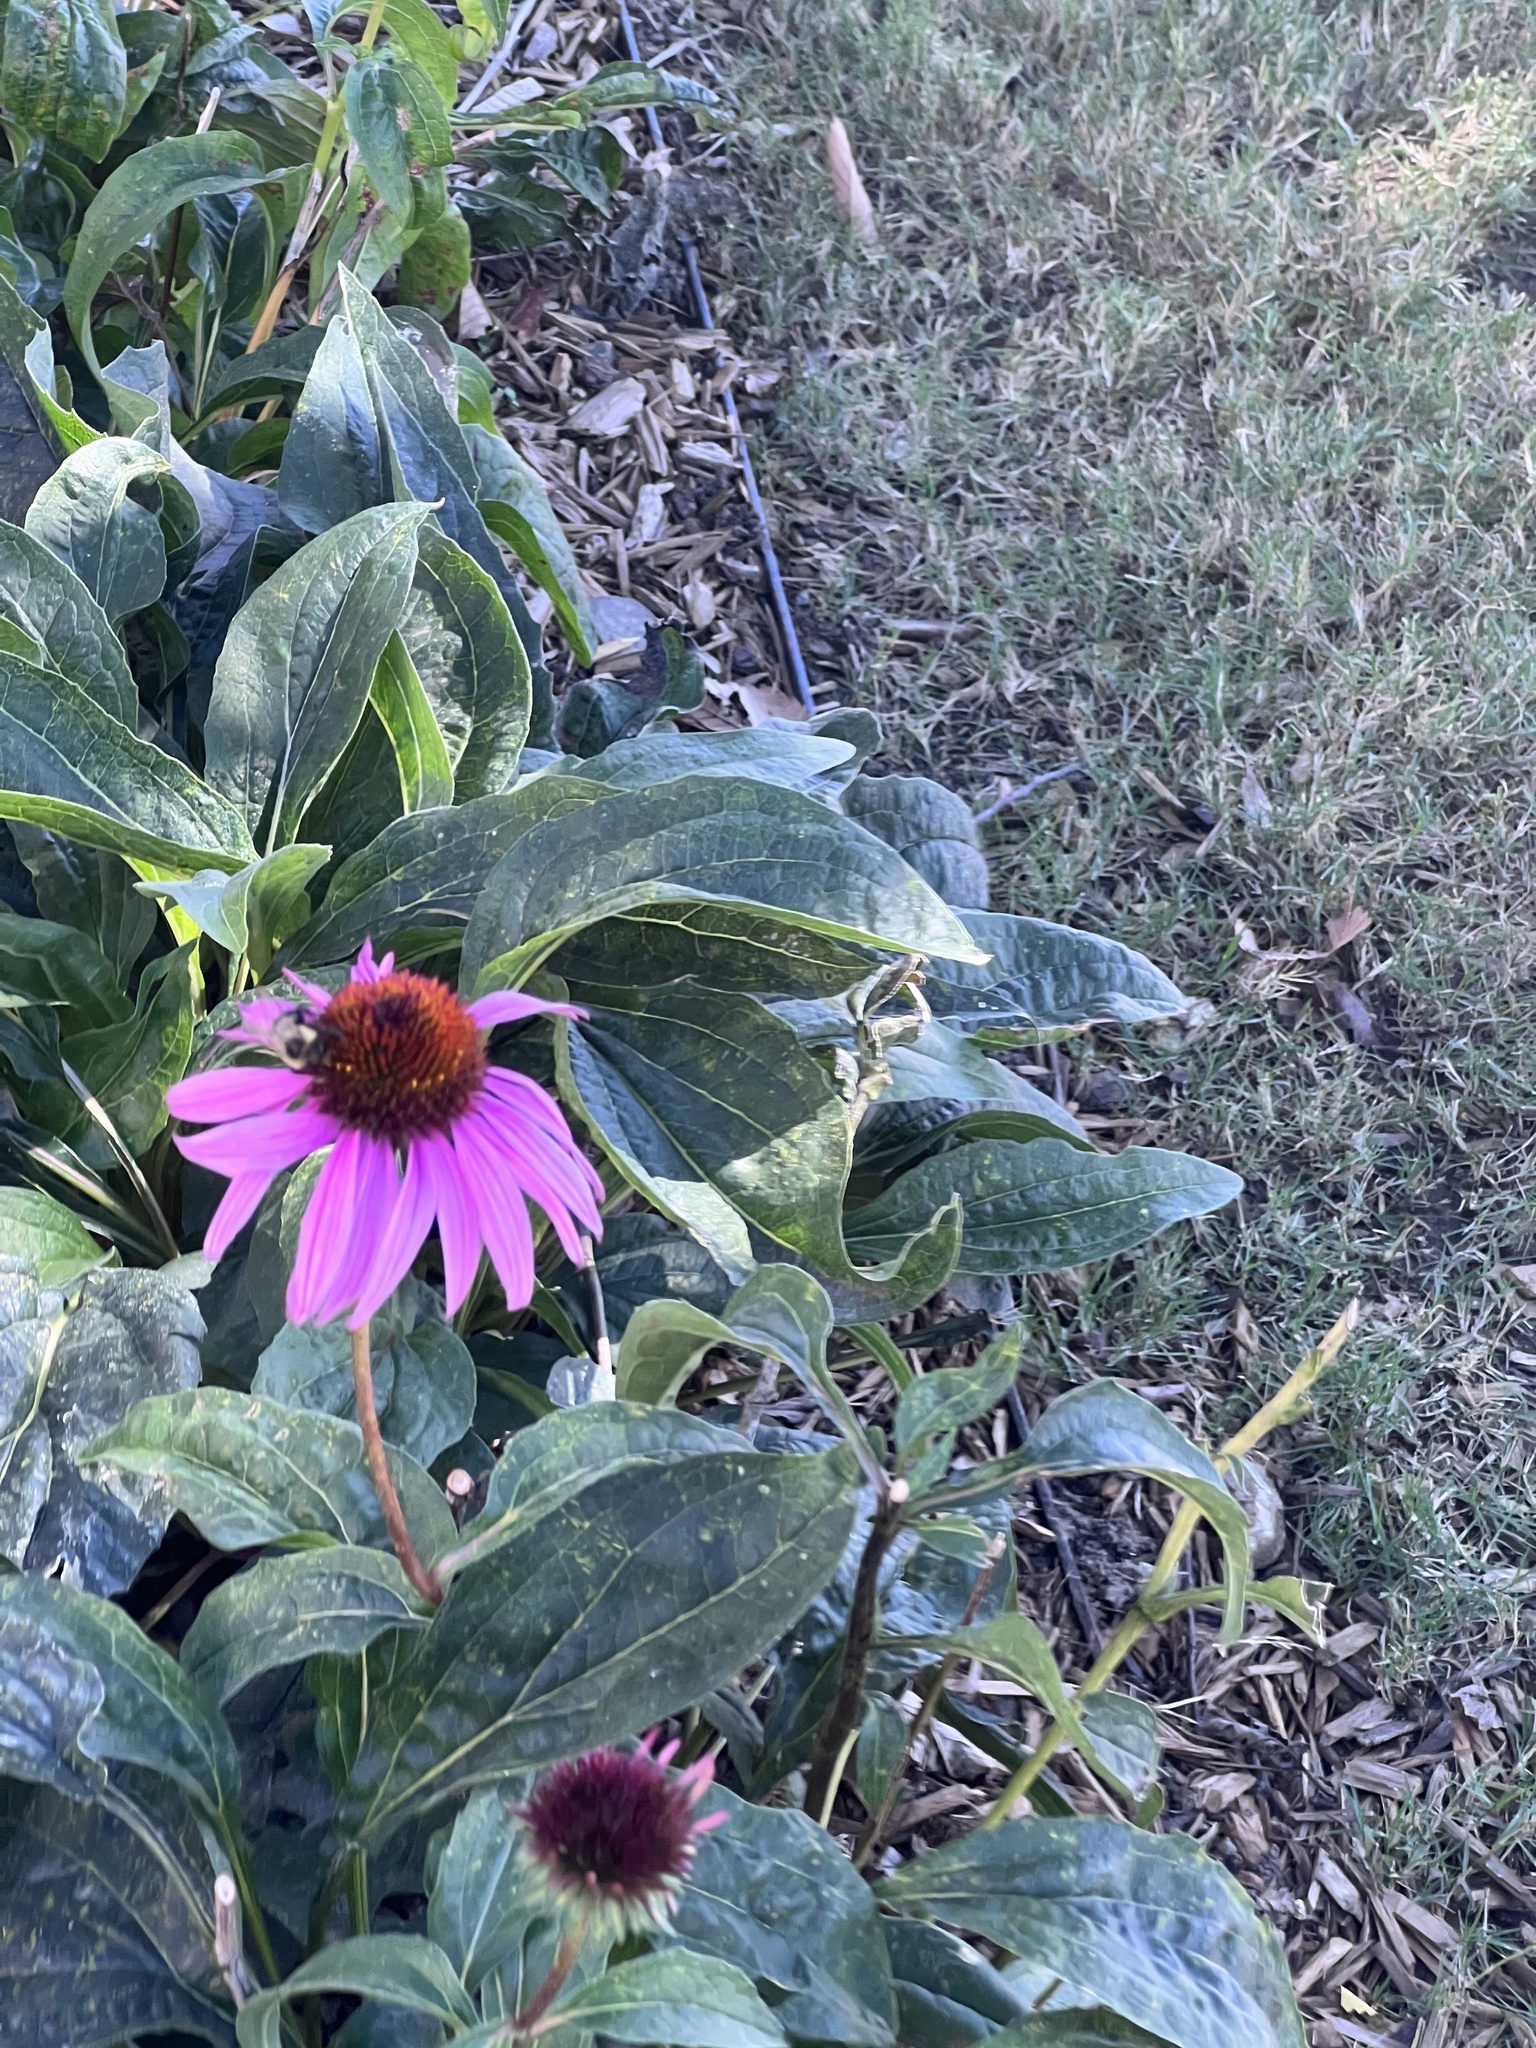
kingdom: Animalia
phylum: Arthropoda
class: Insecta
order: Hymenoptera
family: Apidae
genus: Bombus
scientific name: Bombus impatiens
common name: Common eastern bumble bee
